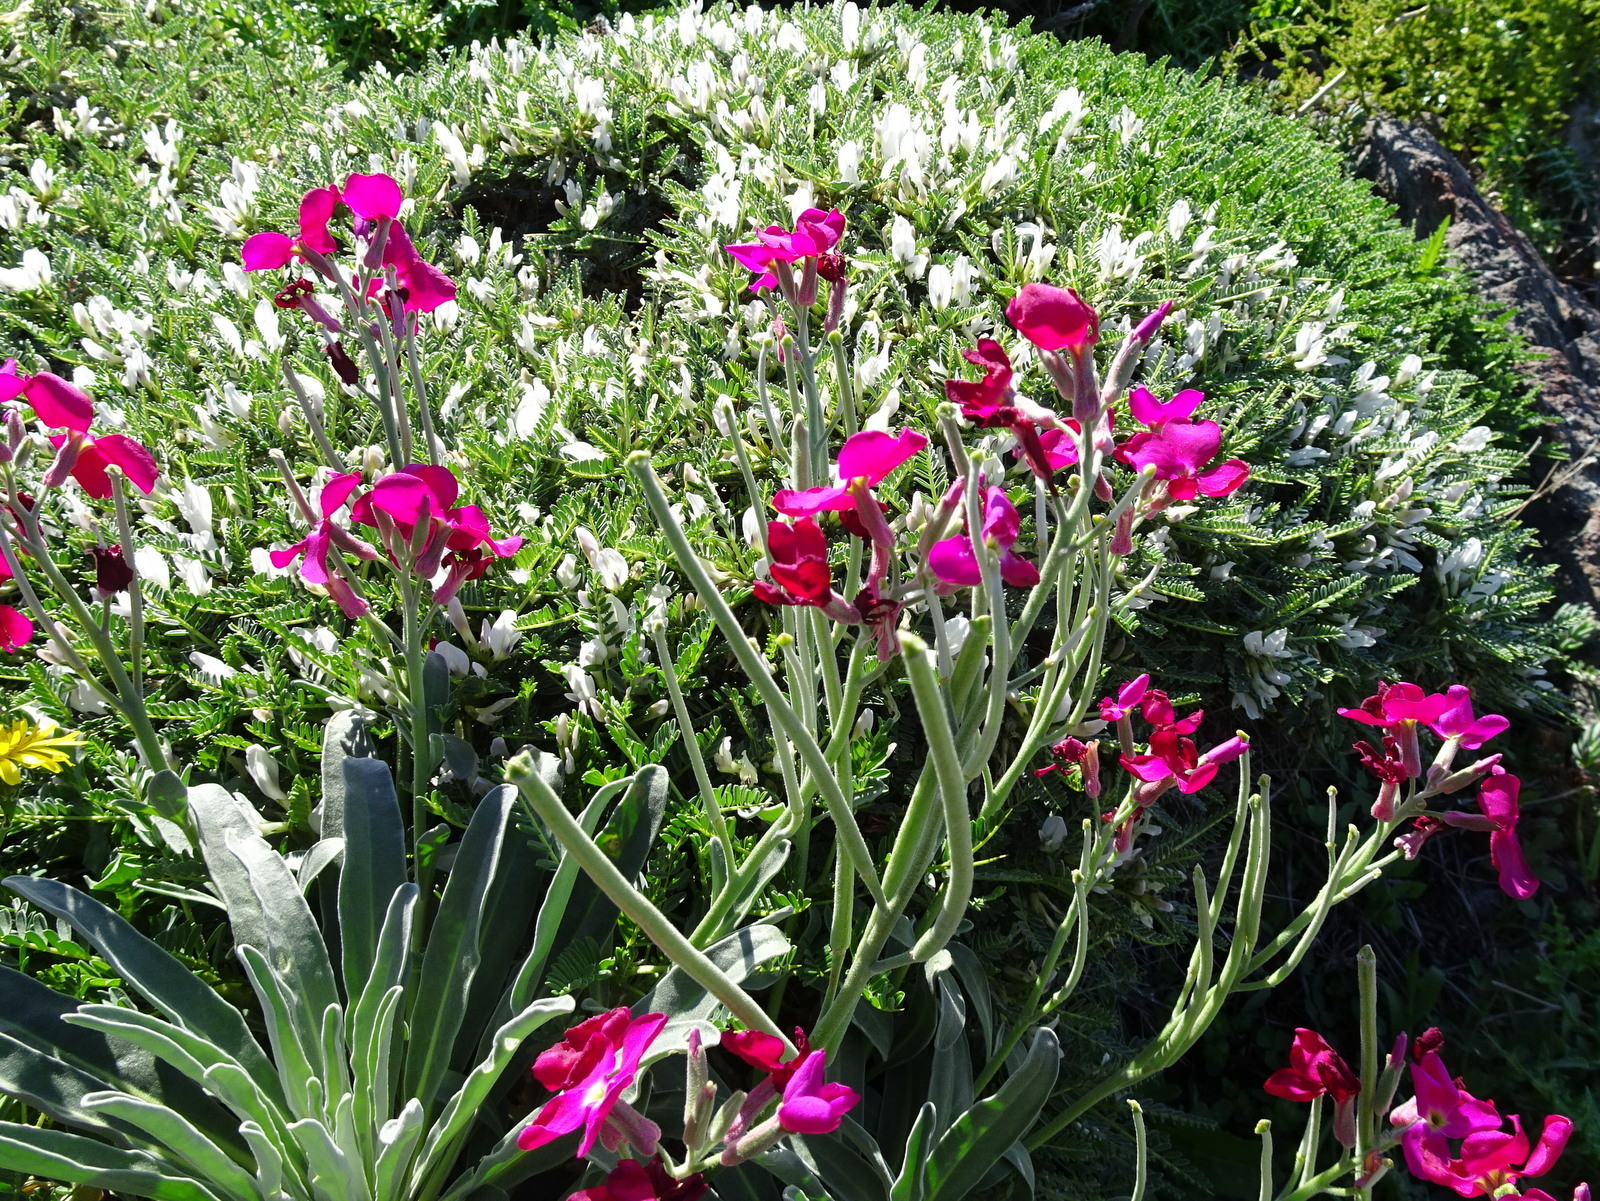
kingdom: Plantae
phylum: Tracheophyta
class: Magnoliopsida
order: Brassicales
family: Brassicaceae
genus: Matthiola
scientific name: Matthiola incana
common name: Hoary stock
